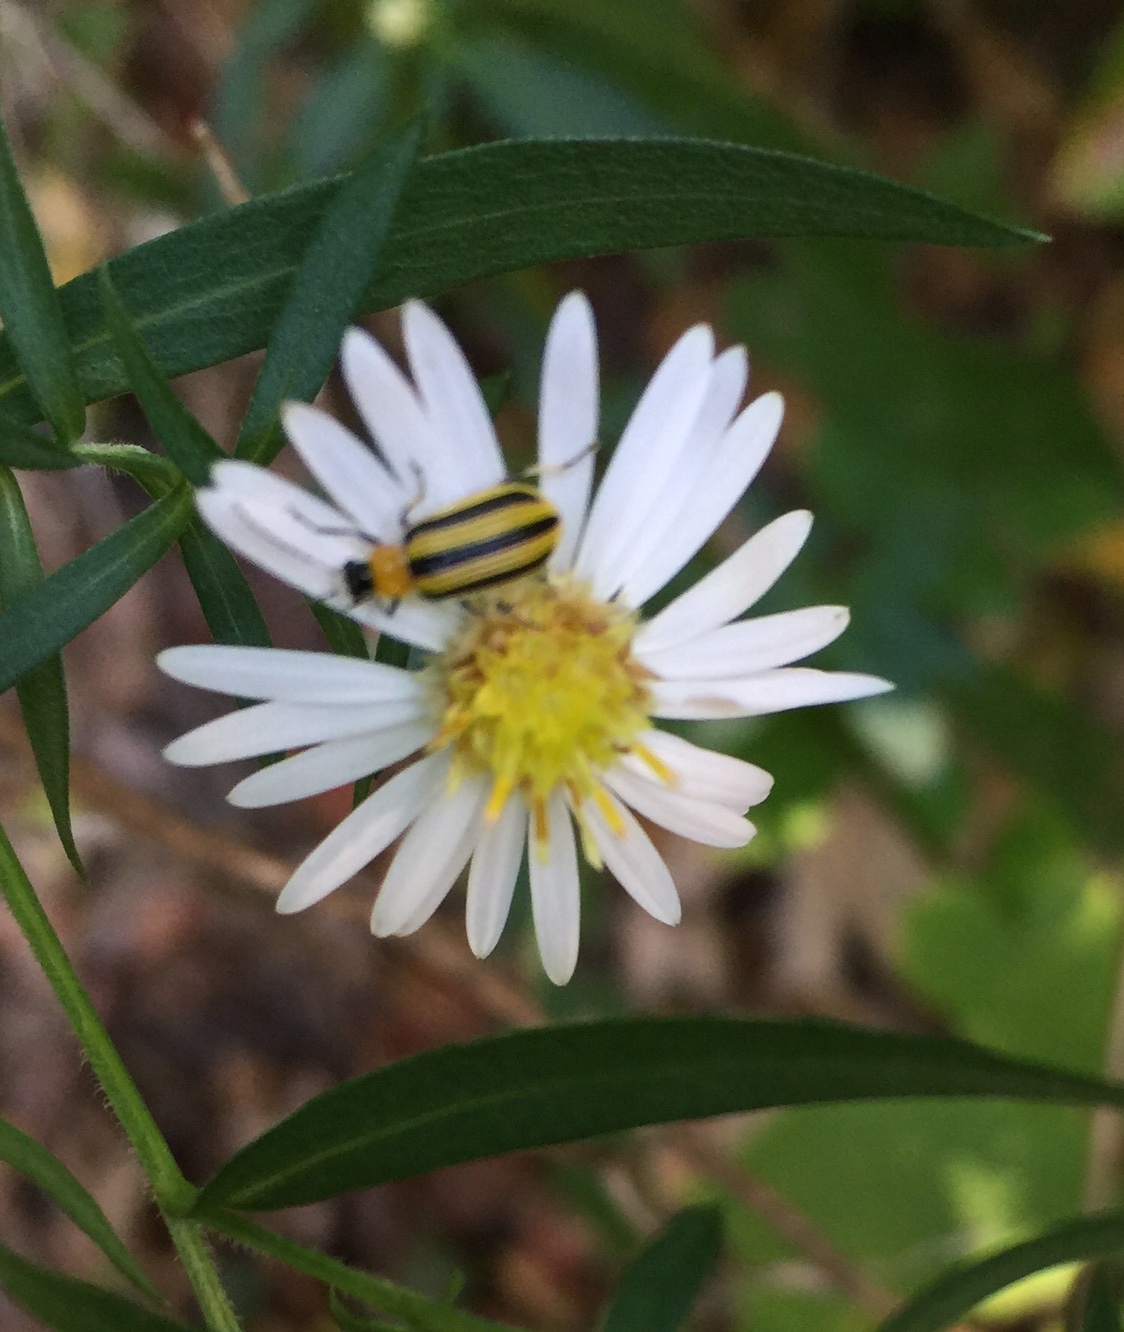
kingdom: Animalia
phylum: Arthropoda
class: Insecta
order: Coleoptera
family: Chrysomelidae
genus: Acalymma
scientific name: Acalymma vittatum
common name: Striped cucumber beetle
